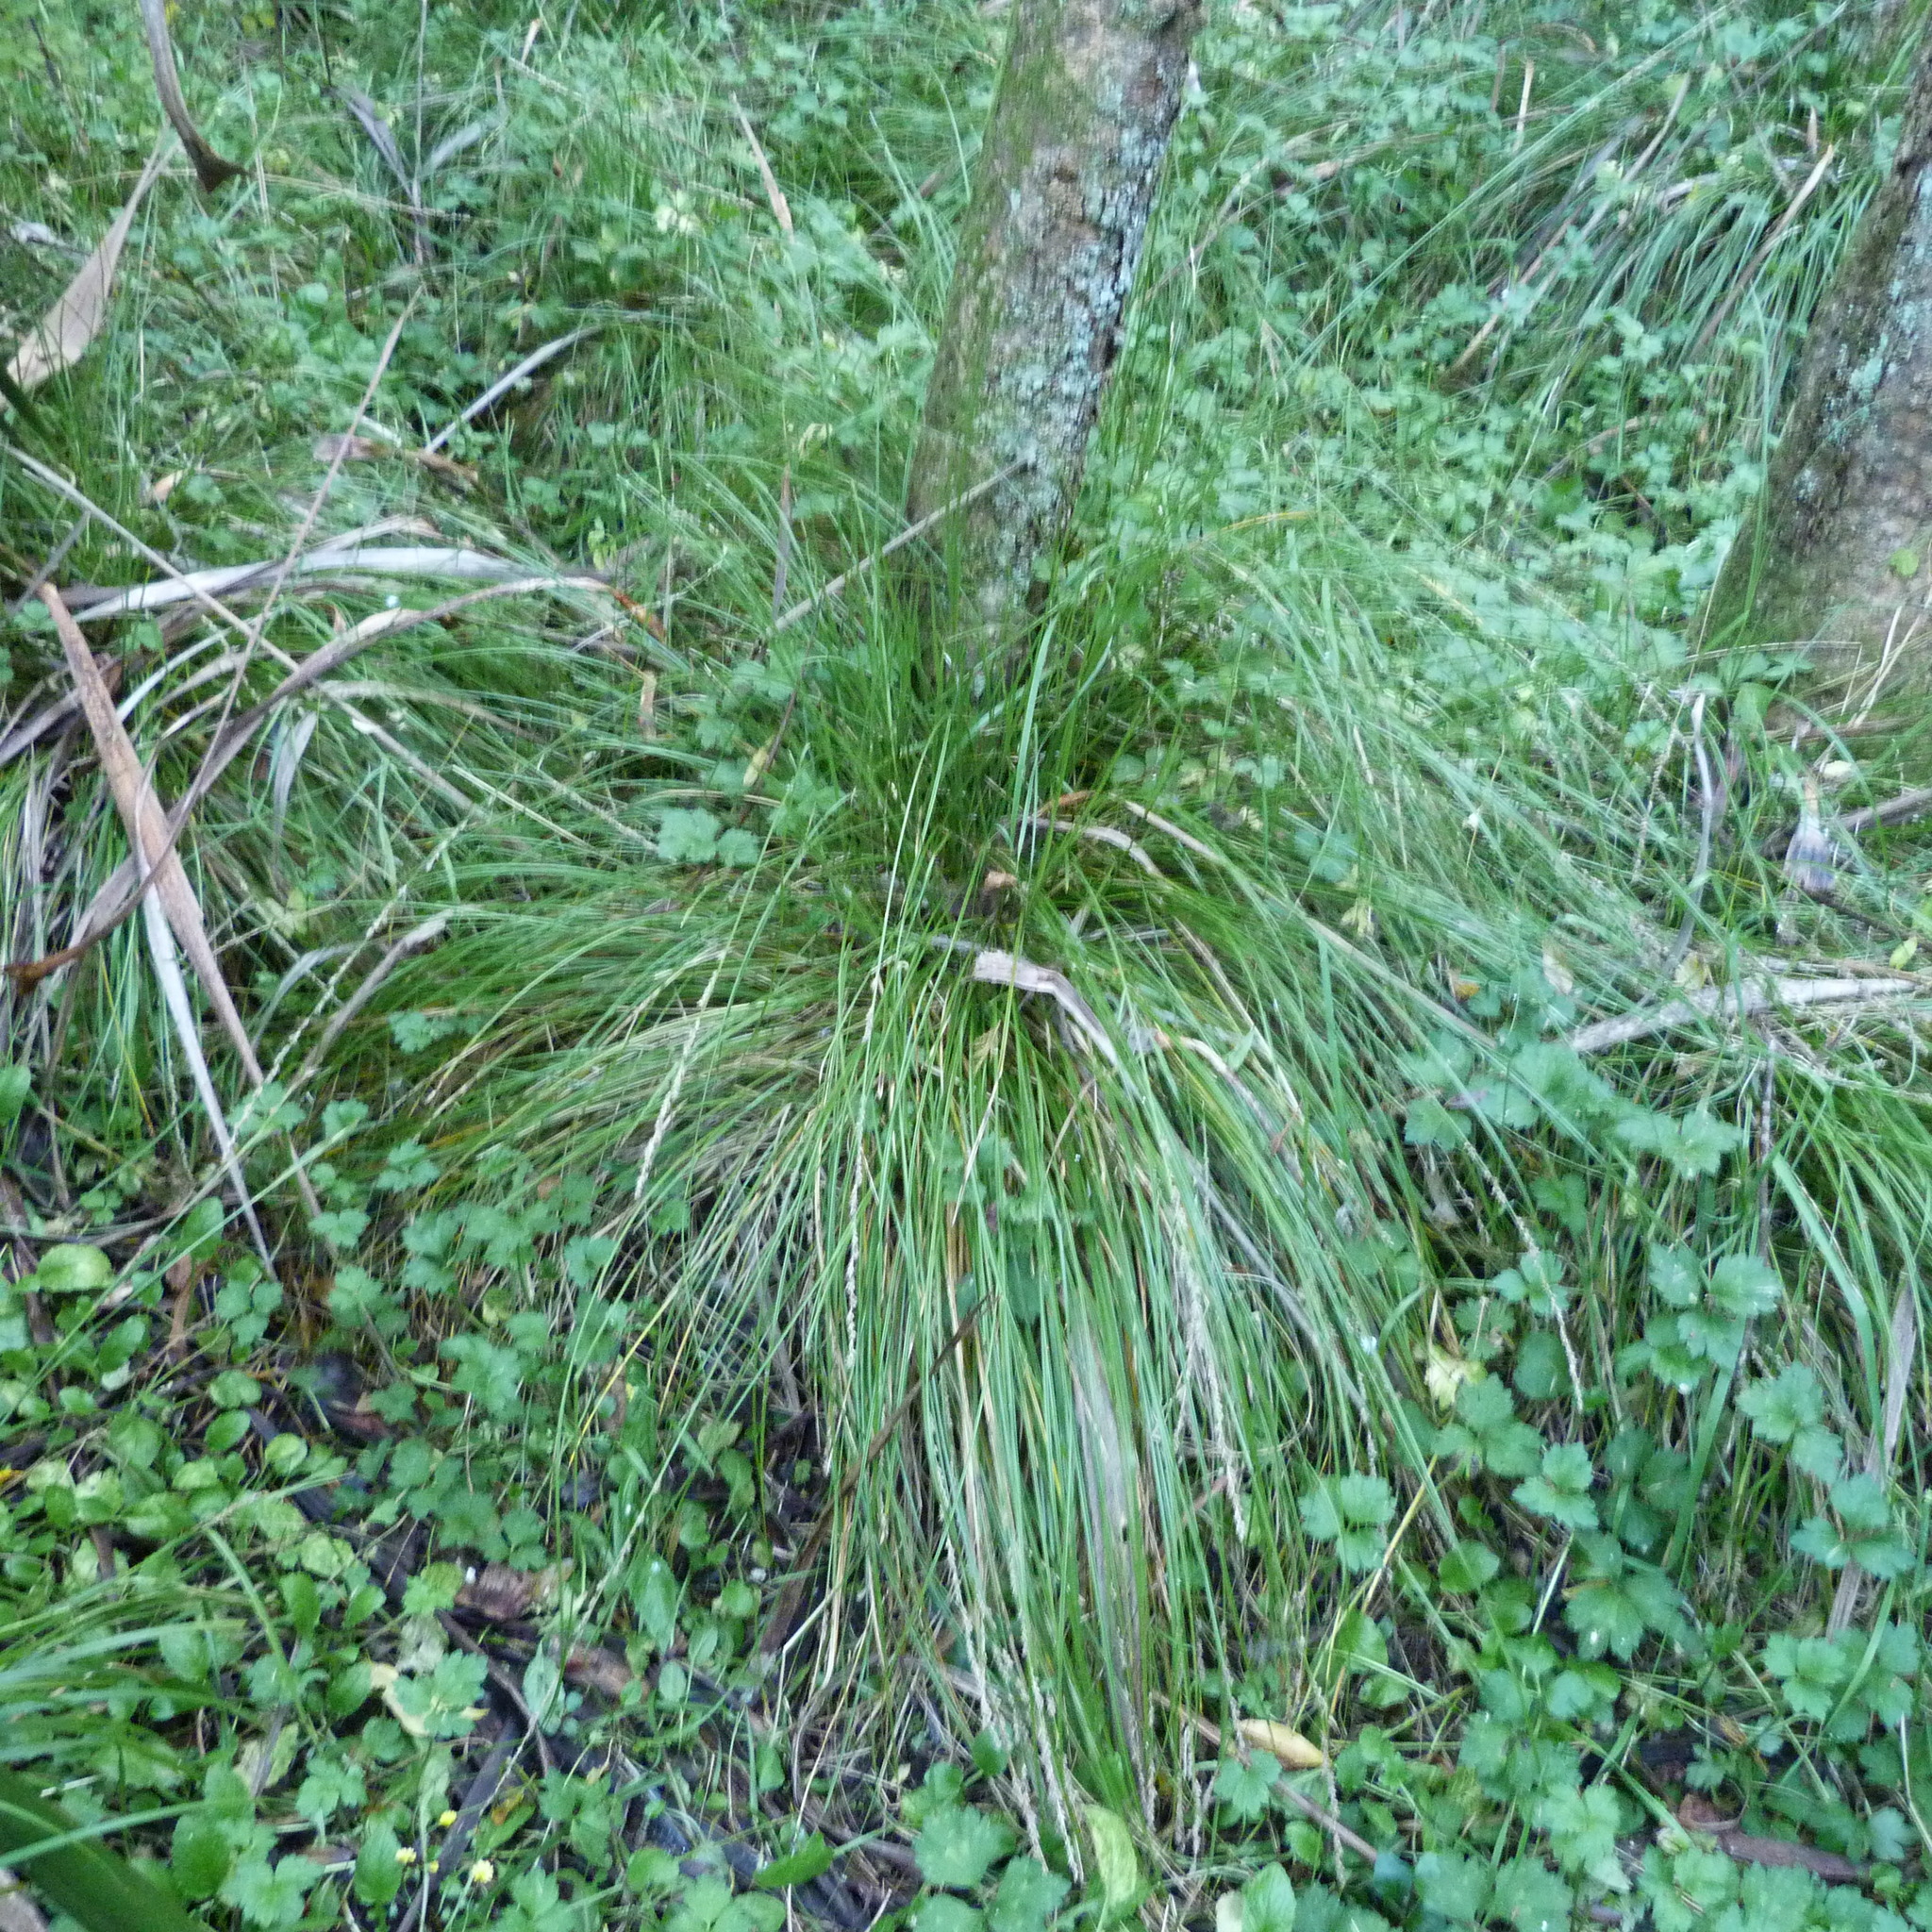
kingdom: Plantae
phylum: Tracheophyta
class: Liliopsida
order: Poales
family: Cyperaceae
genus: Carex
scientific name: Carex virgata
